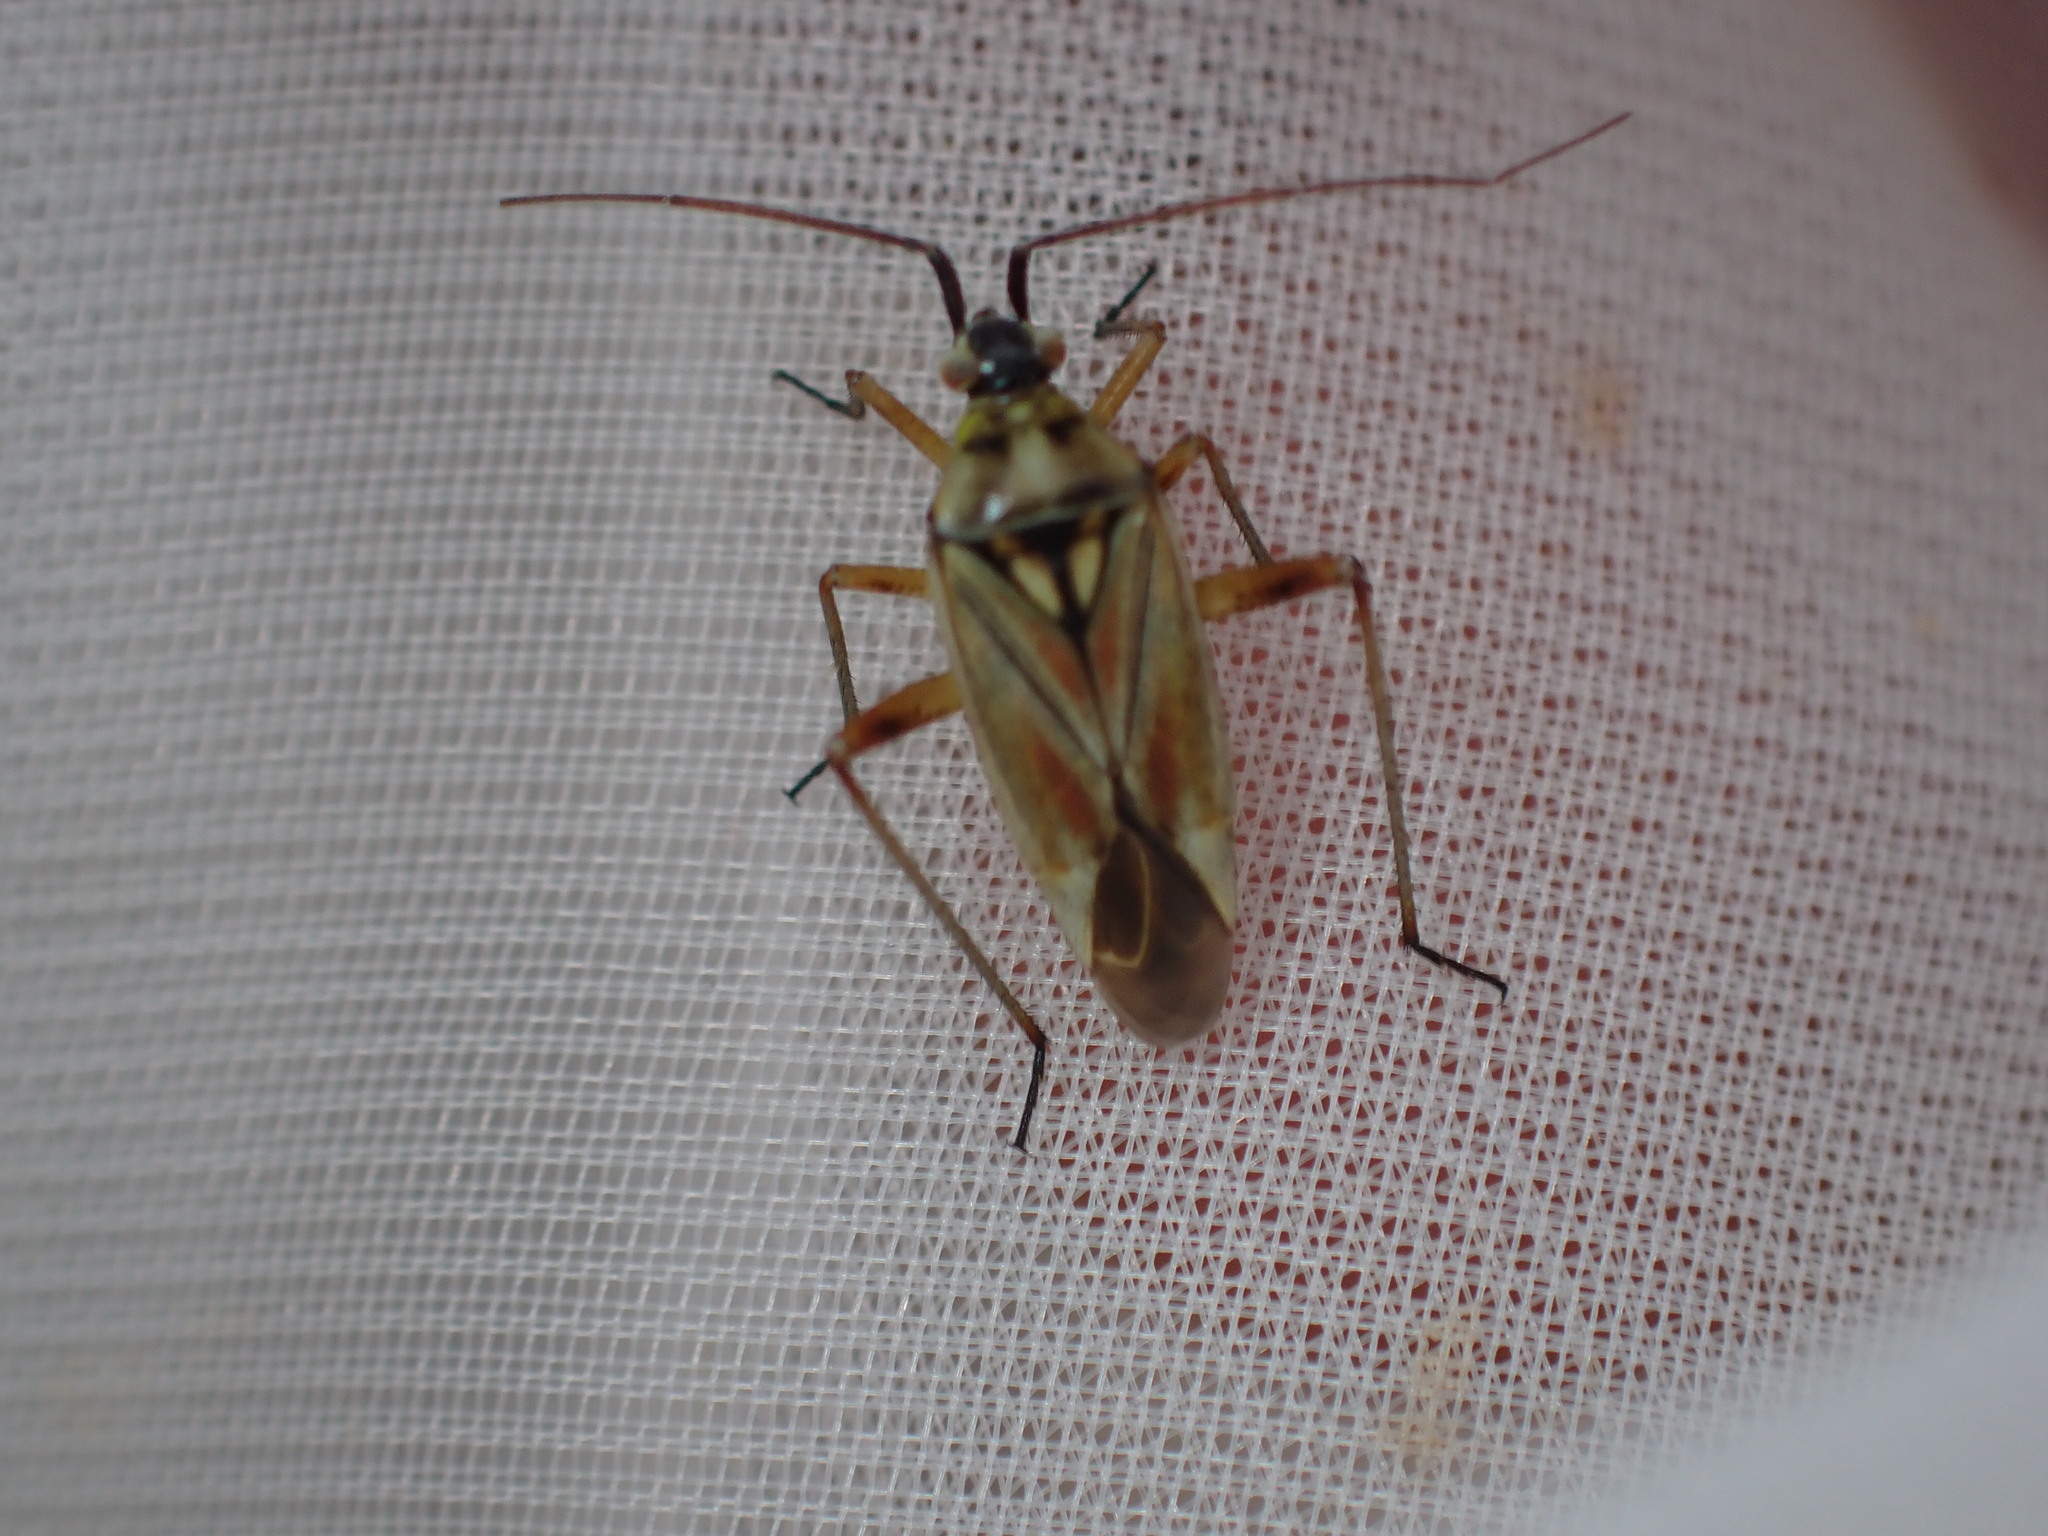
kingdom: Animalia
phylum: Arthropoda
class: Insecta
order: Hemiptera
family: Miridae
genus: Calocoris
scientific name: Calocoris roseomaculatus
